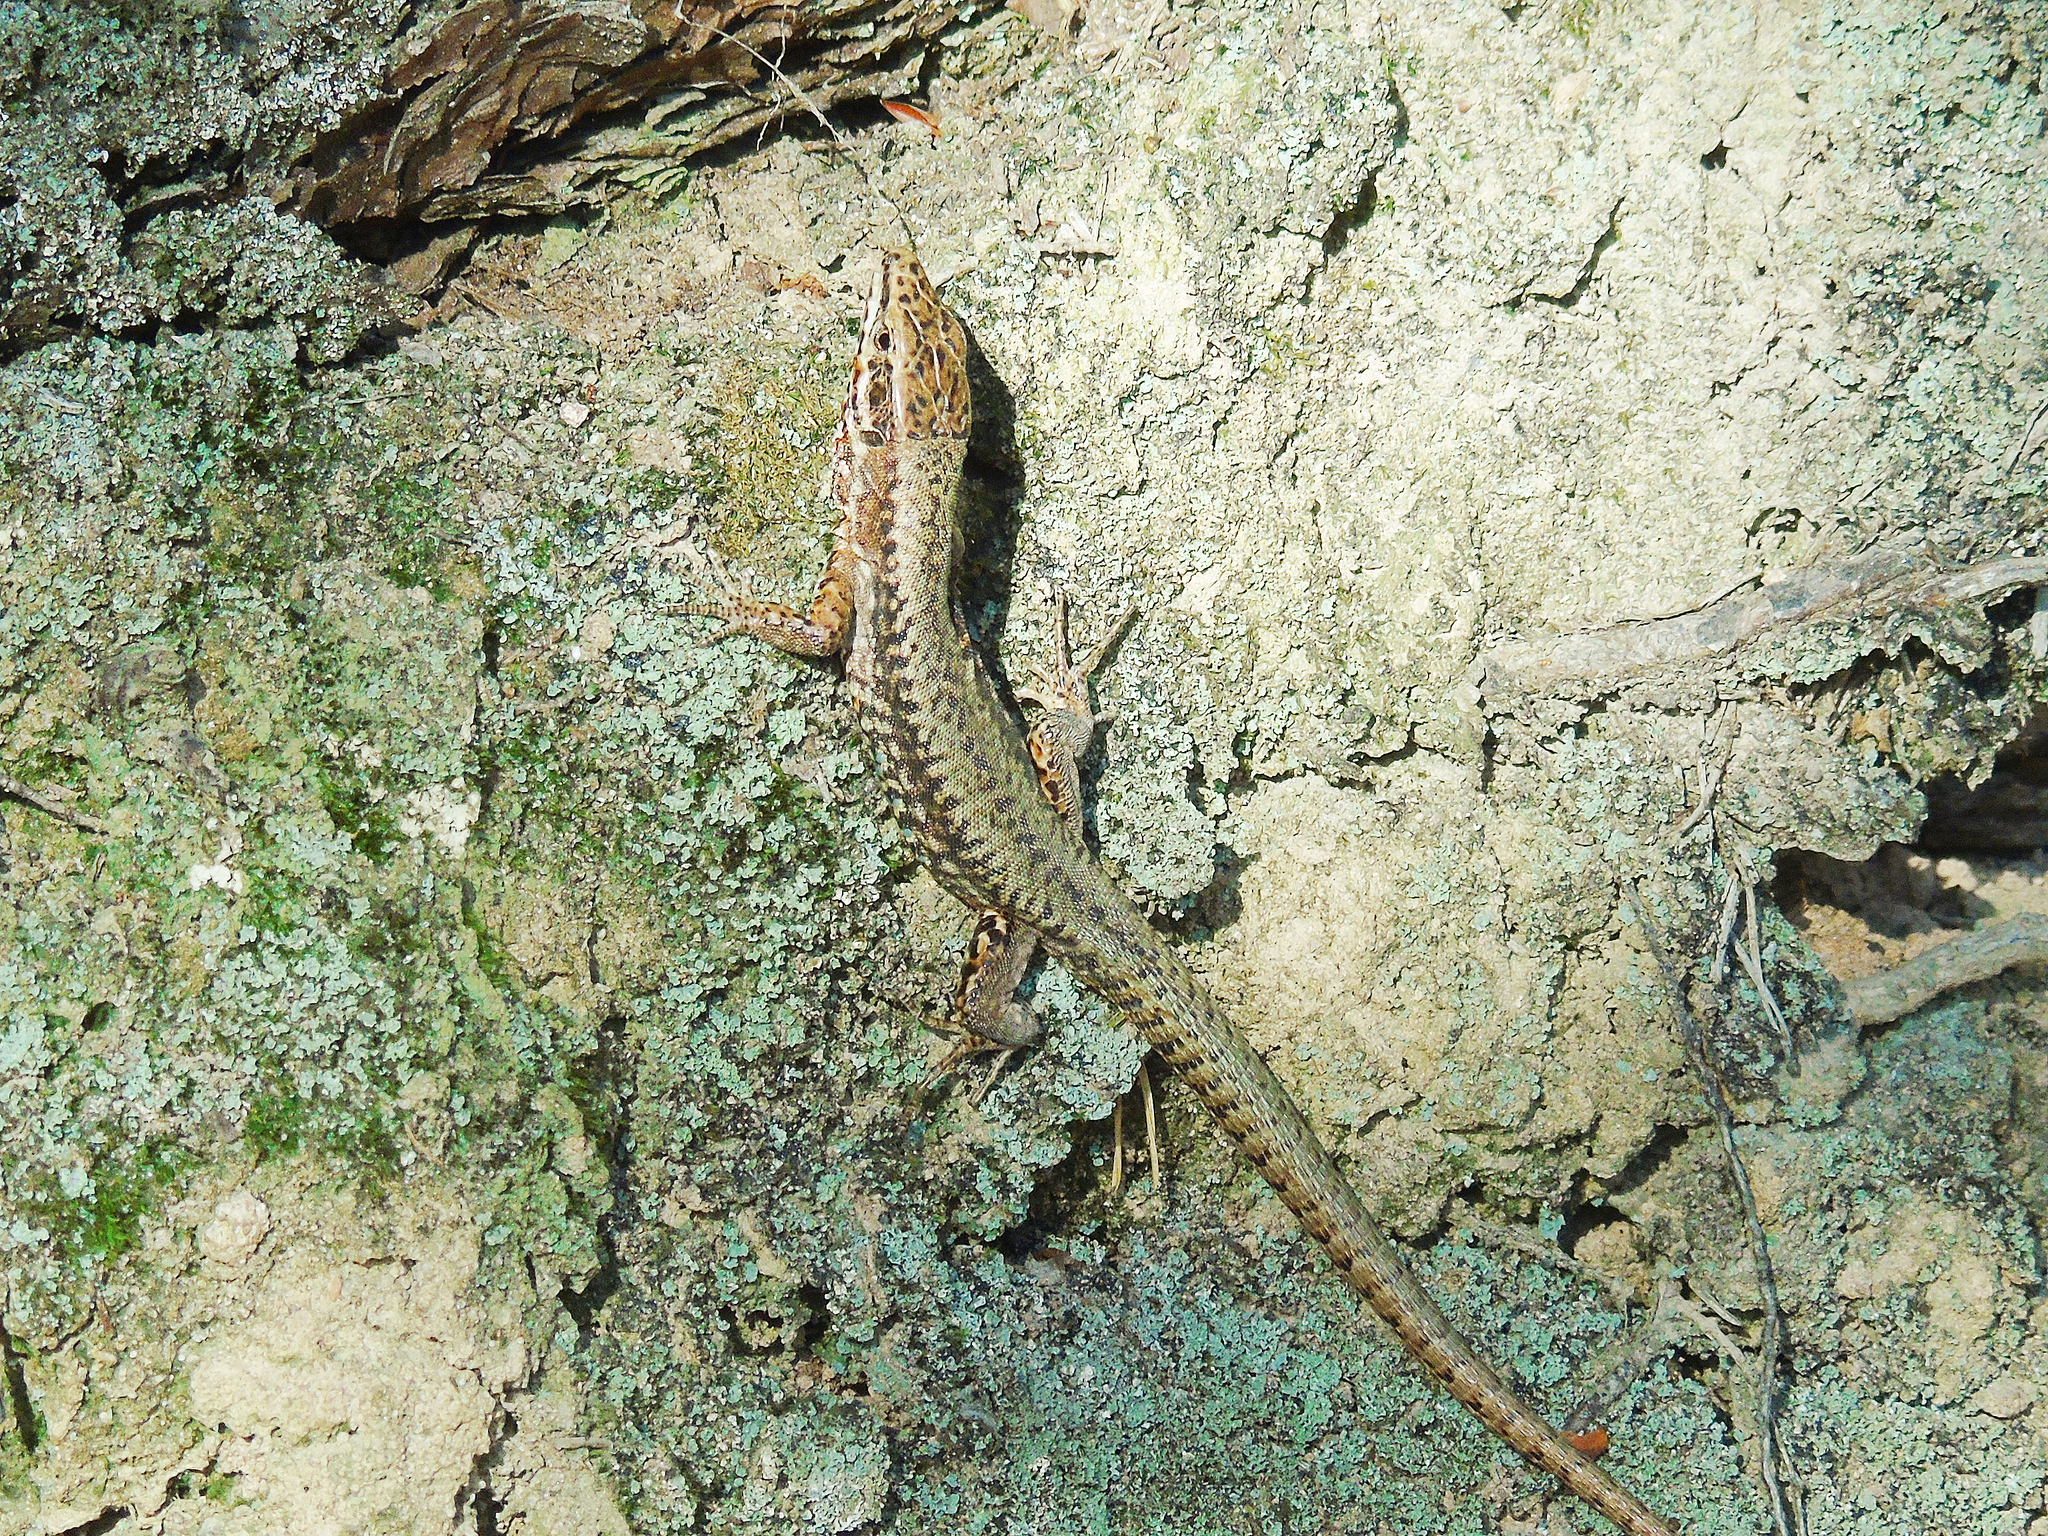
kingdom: Animalia
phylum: Chordata
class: Squamata
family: Lacertidae
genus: Podarcis
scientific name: Podarcis muralis
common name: Common wall lizard
